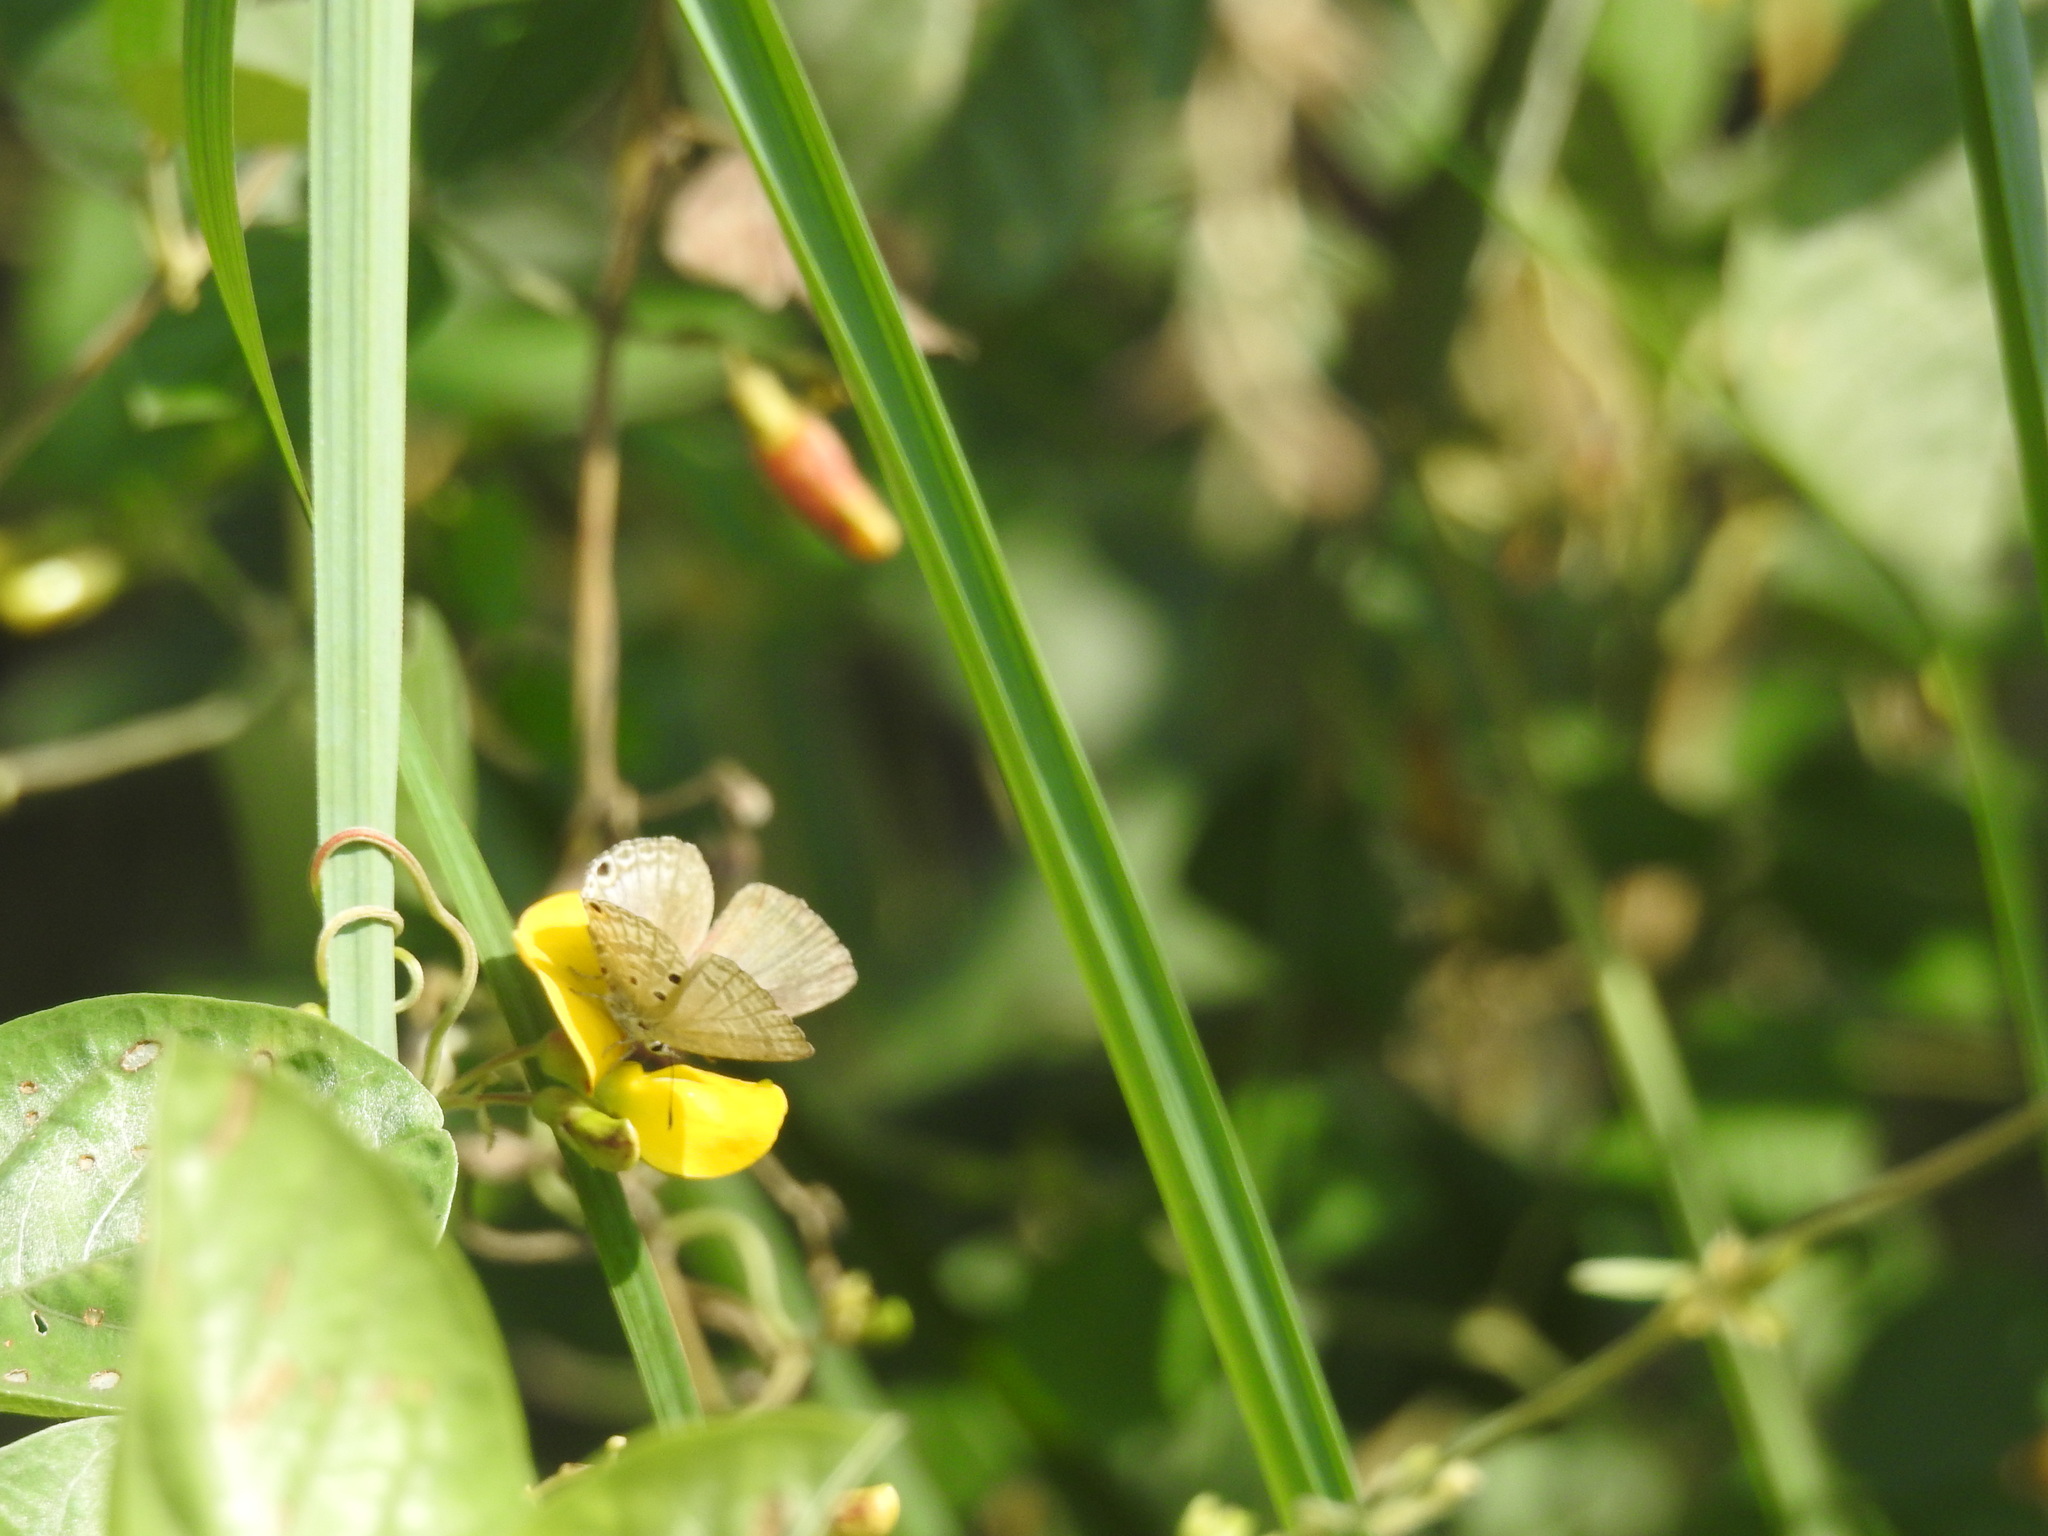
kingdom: Animalia
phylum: Arthropoda
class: Insecta
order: Lepidoptera
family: Lycaenidae
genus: Luthrodes
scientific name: Luthrodes pandava
